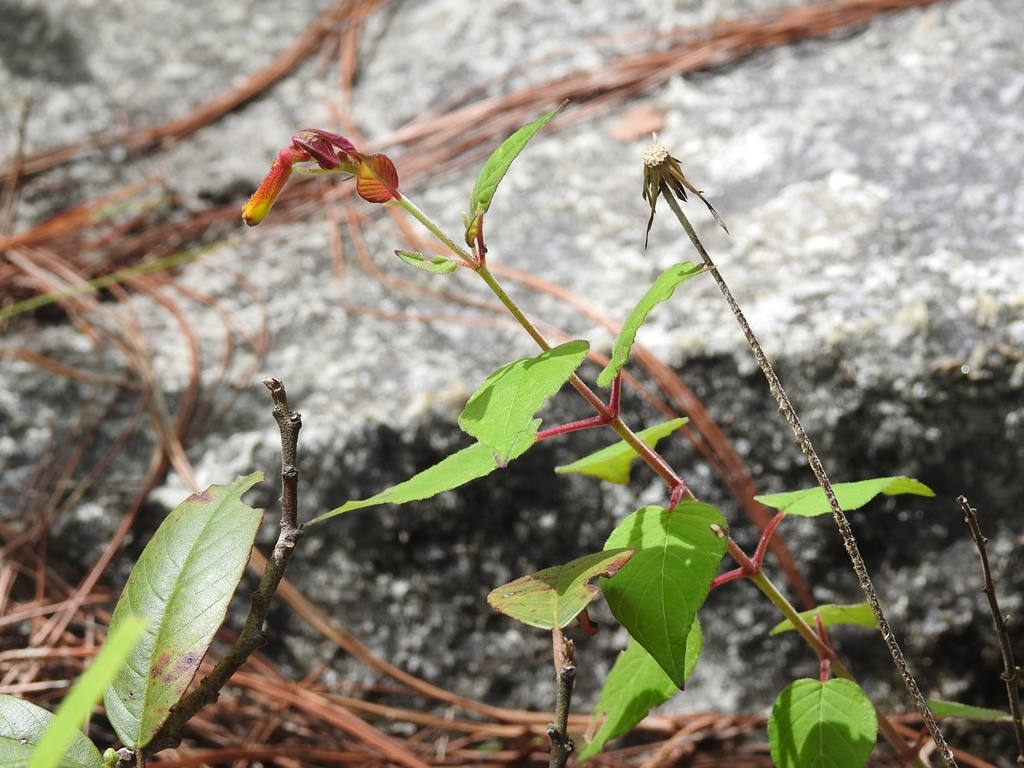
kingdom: Plantae
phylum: Tracheophyta
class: Magnoliopsida
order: Myrtales
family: Lythraceae
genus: Cuphea
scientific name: Cuphea cyanea
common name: Black-eyed cuphea
